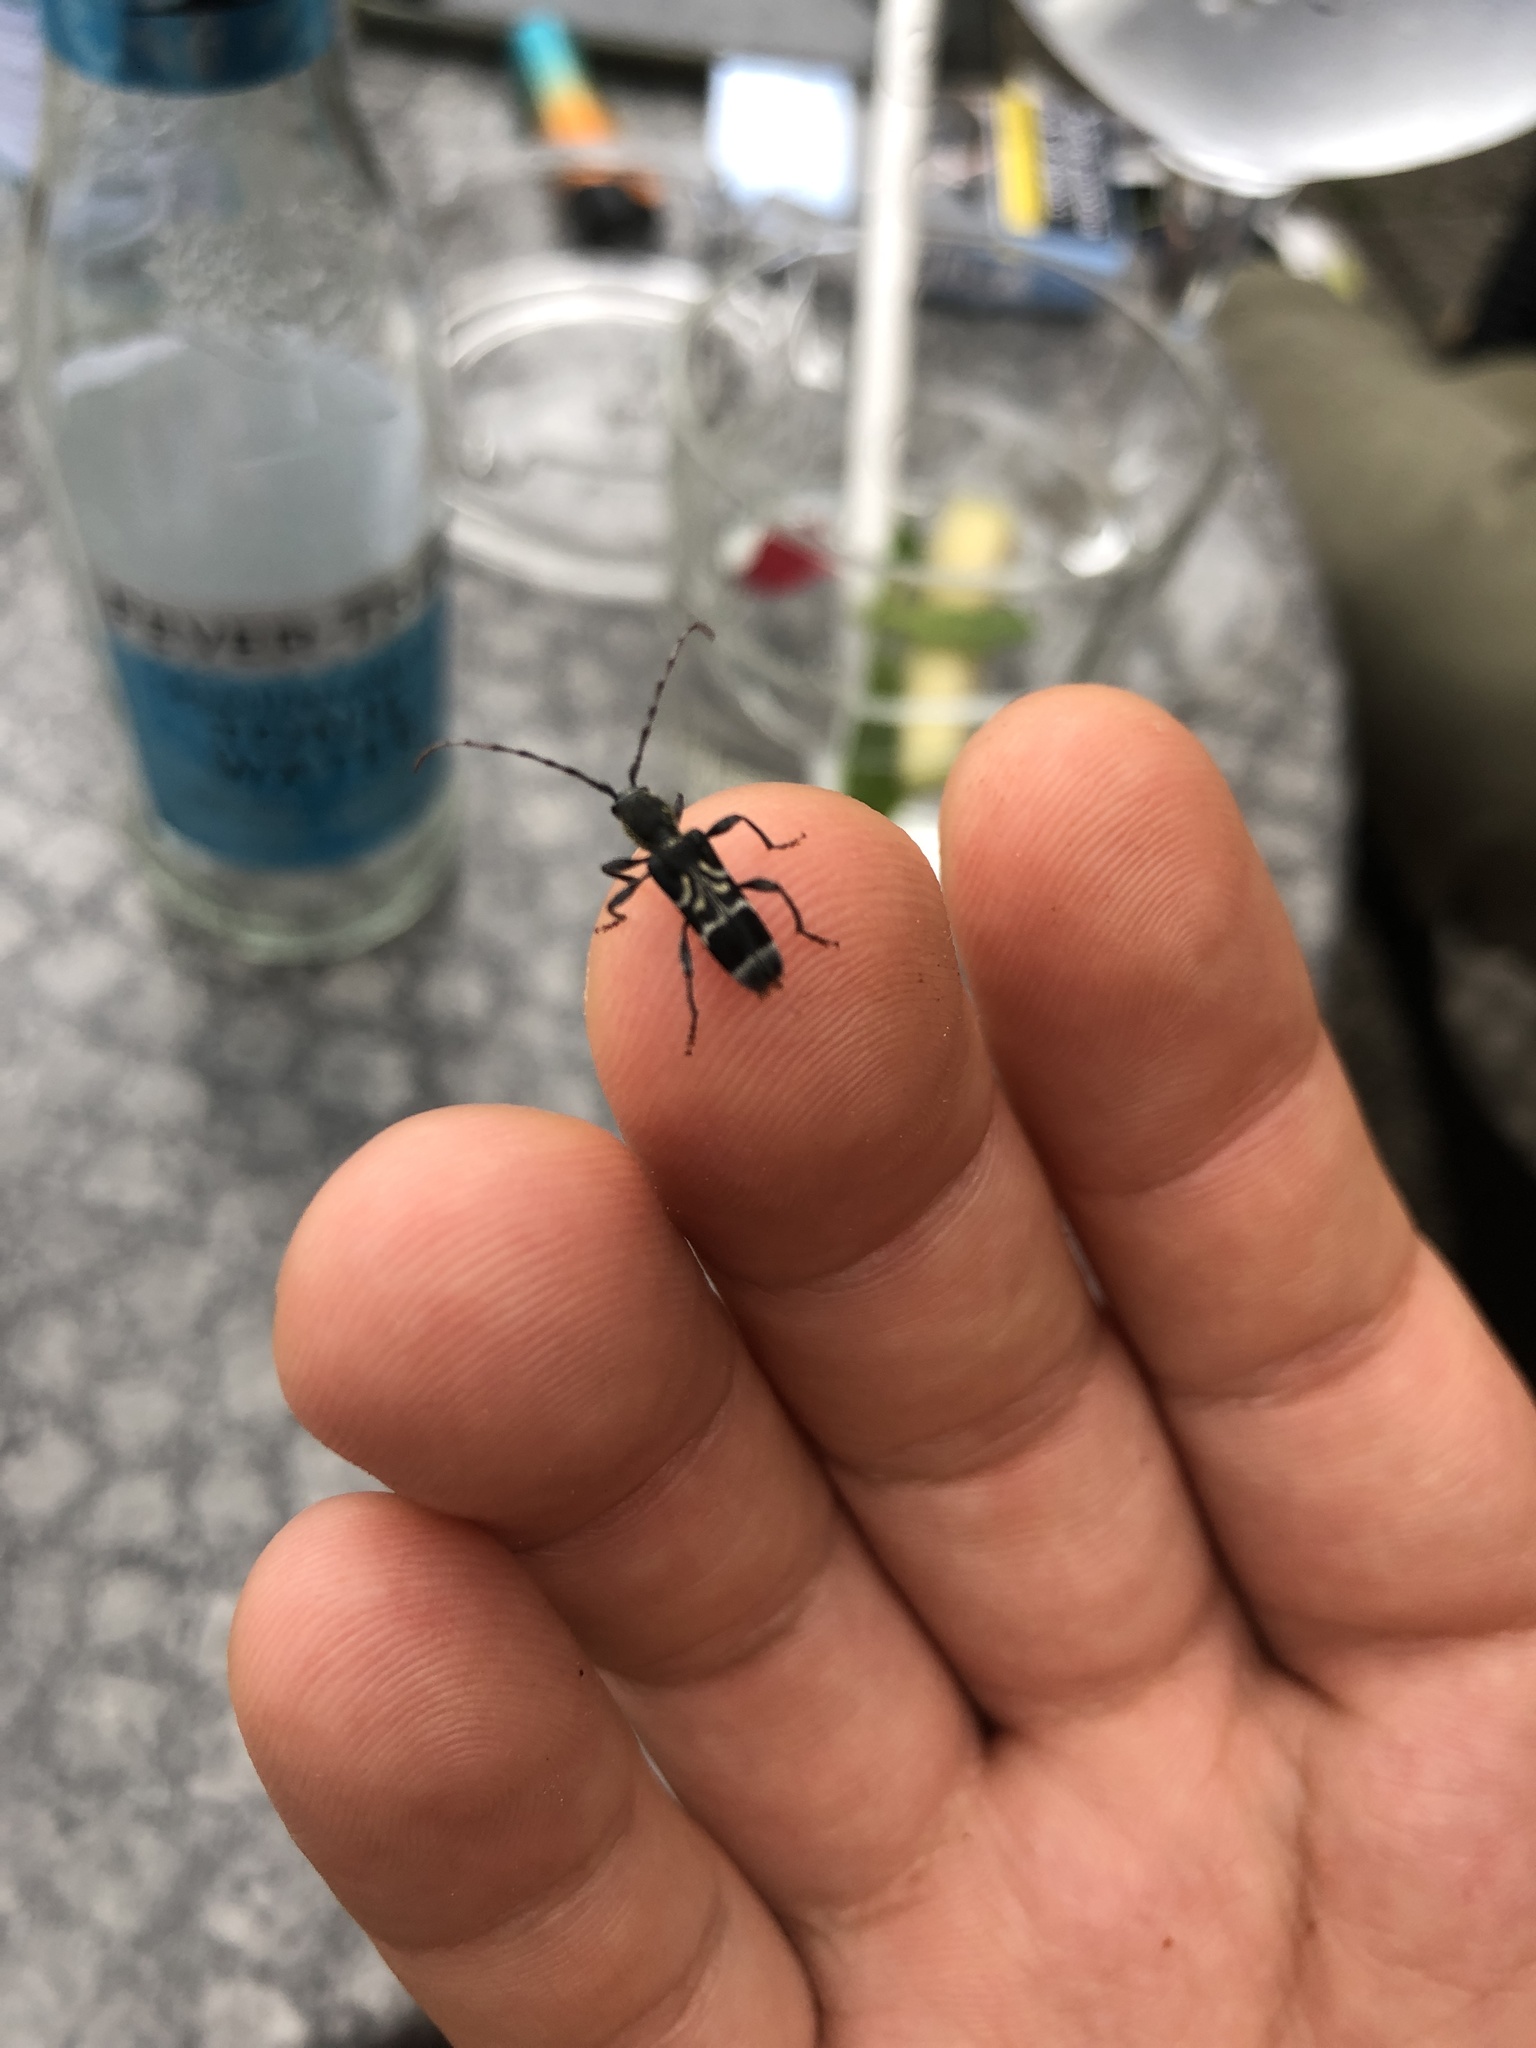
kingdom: Animalia
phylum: Arthropoda
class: Insecta
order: Coleoptera
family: Cerambycidae
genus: Anaglyptus
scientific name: Anaglyptus mysticus
